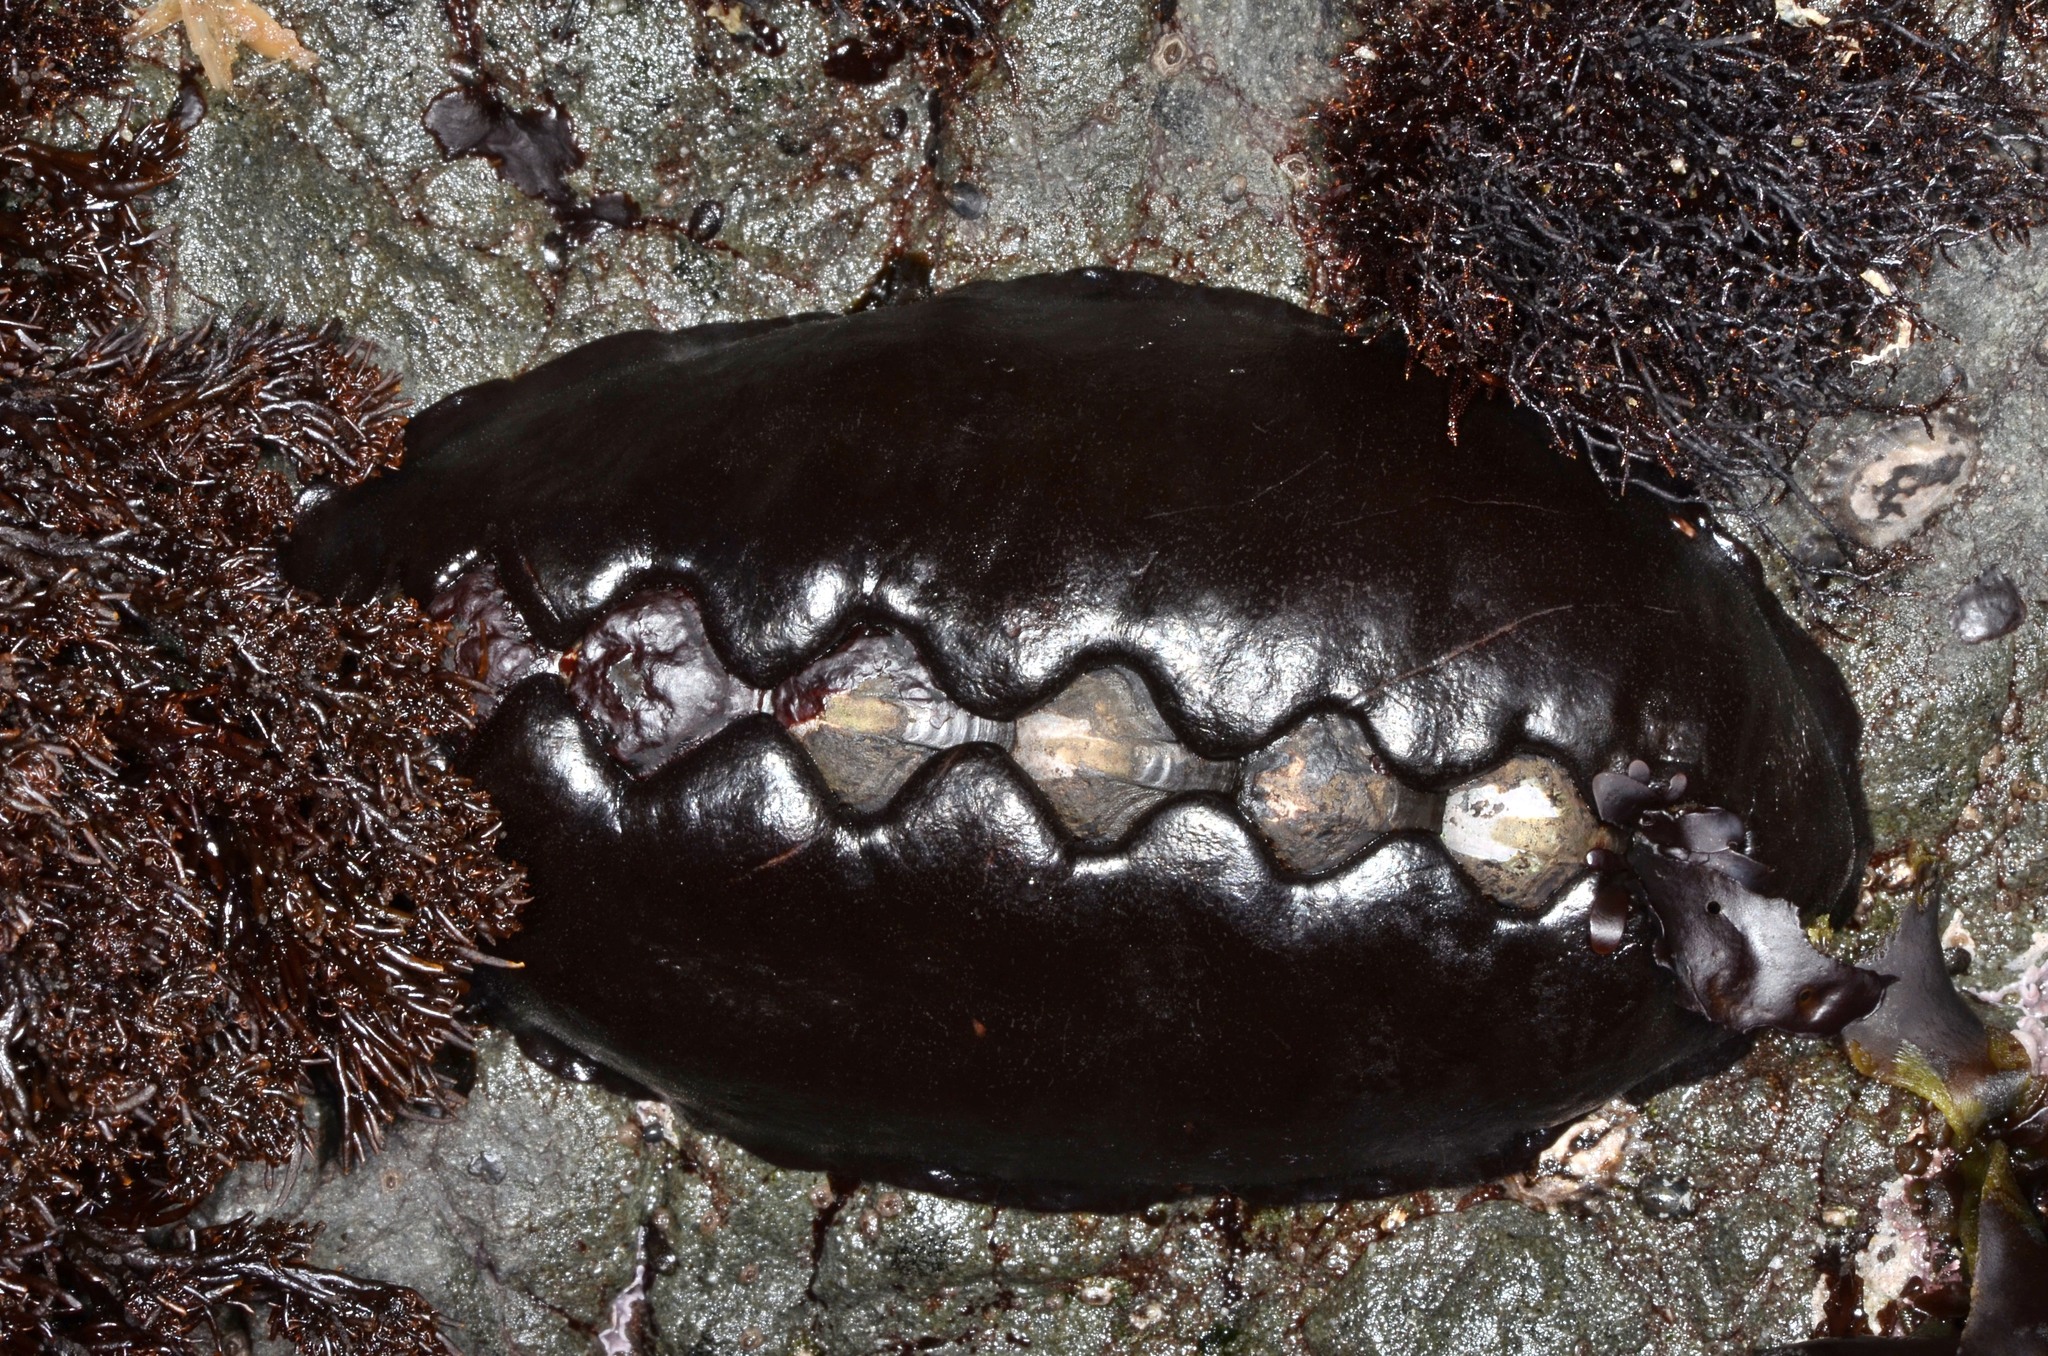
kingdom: Animalia
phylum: Mollusca
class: Polyplacophora
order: Chitonida
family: Mopaliidae
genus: Katharina
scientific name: Katharina tunicata
